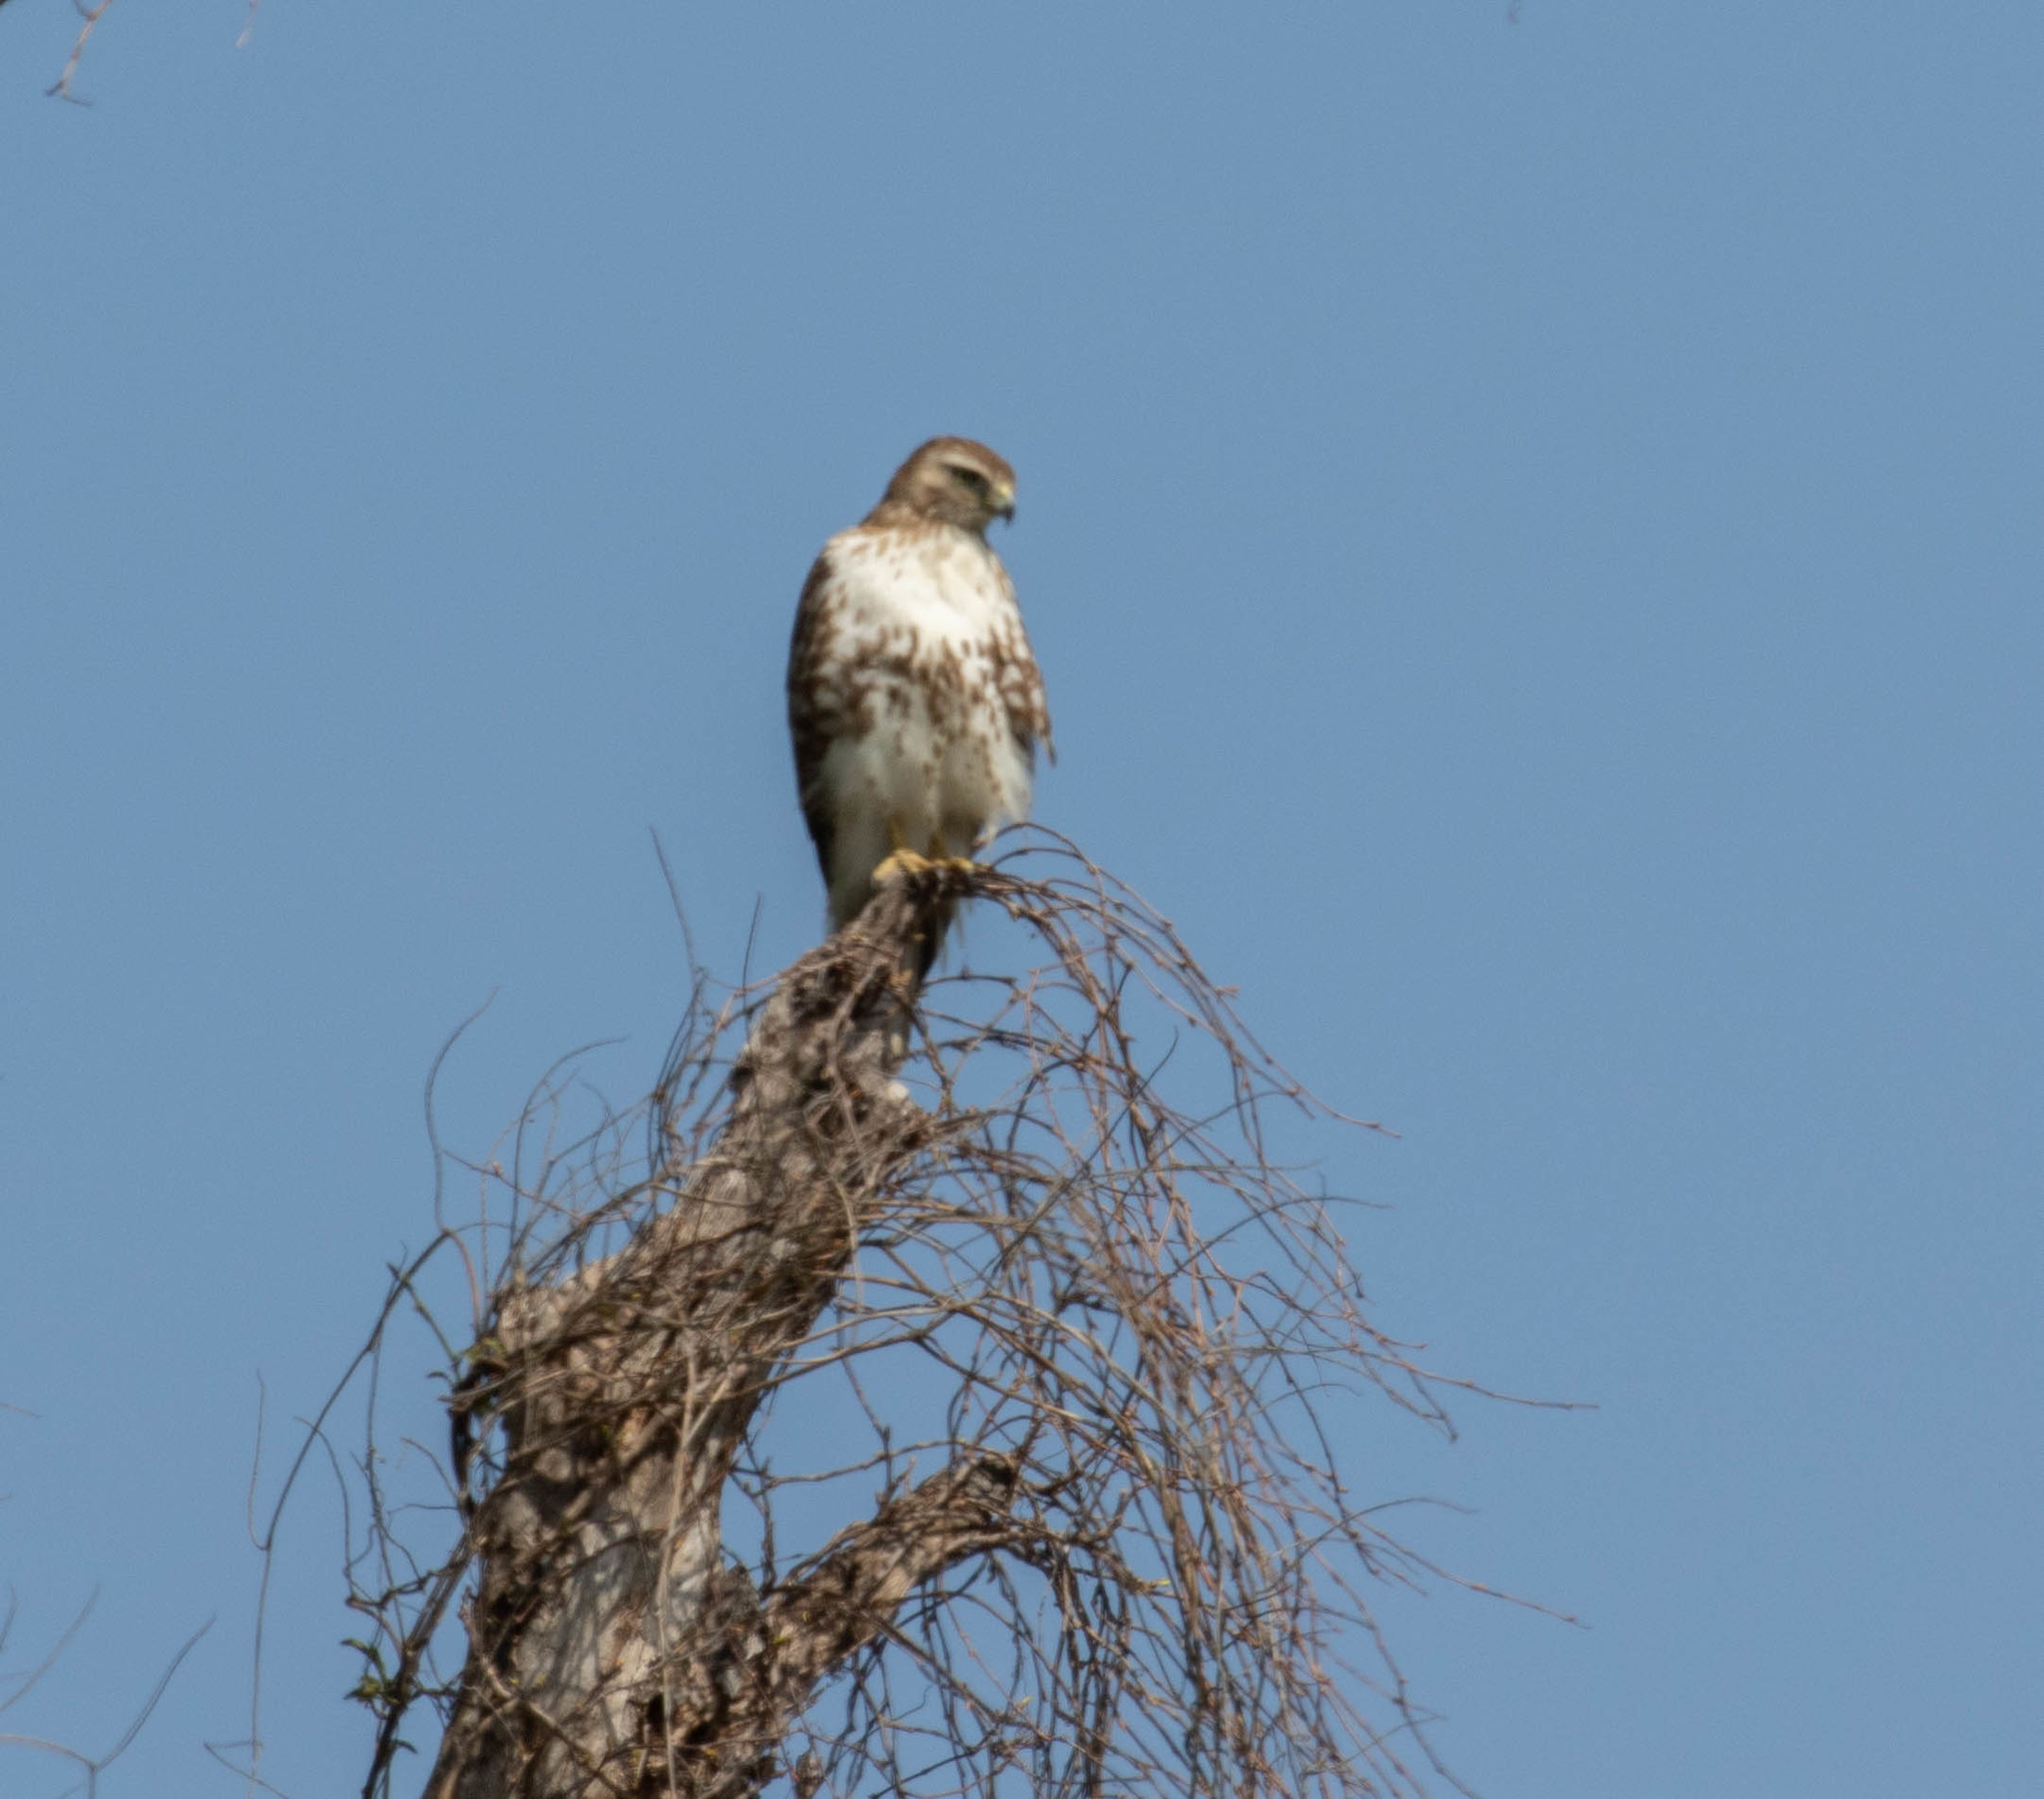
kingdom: Animalia
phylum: Chordata
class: Aves
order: Accipitriformes
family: Accipitridae
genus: Buteo
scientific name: Buteo jamaicensis
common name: Red-tailed hawk
